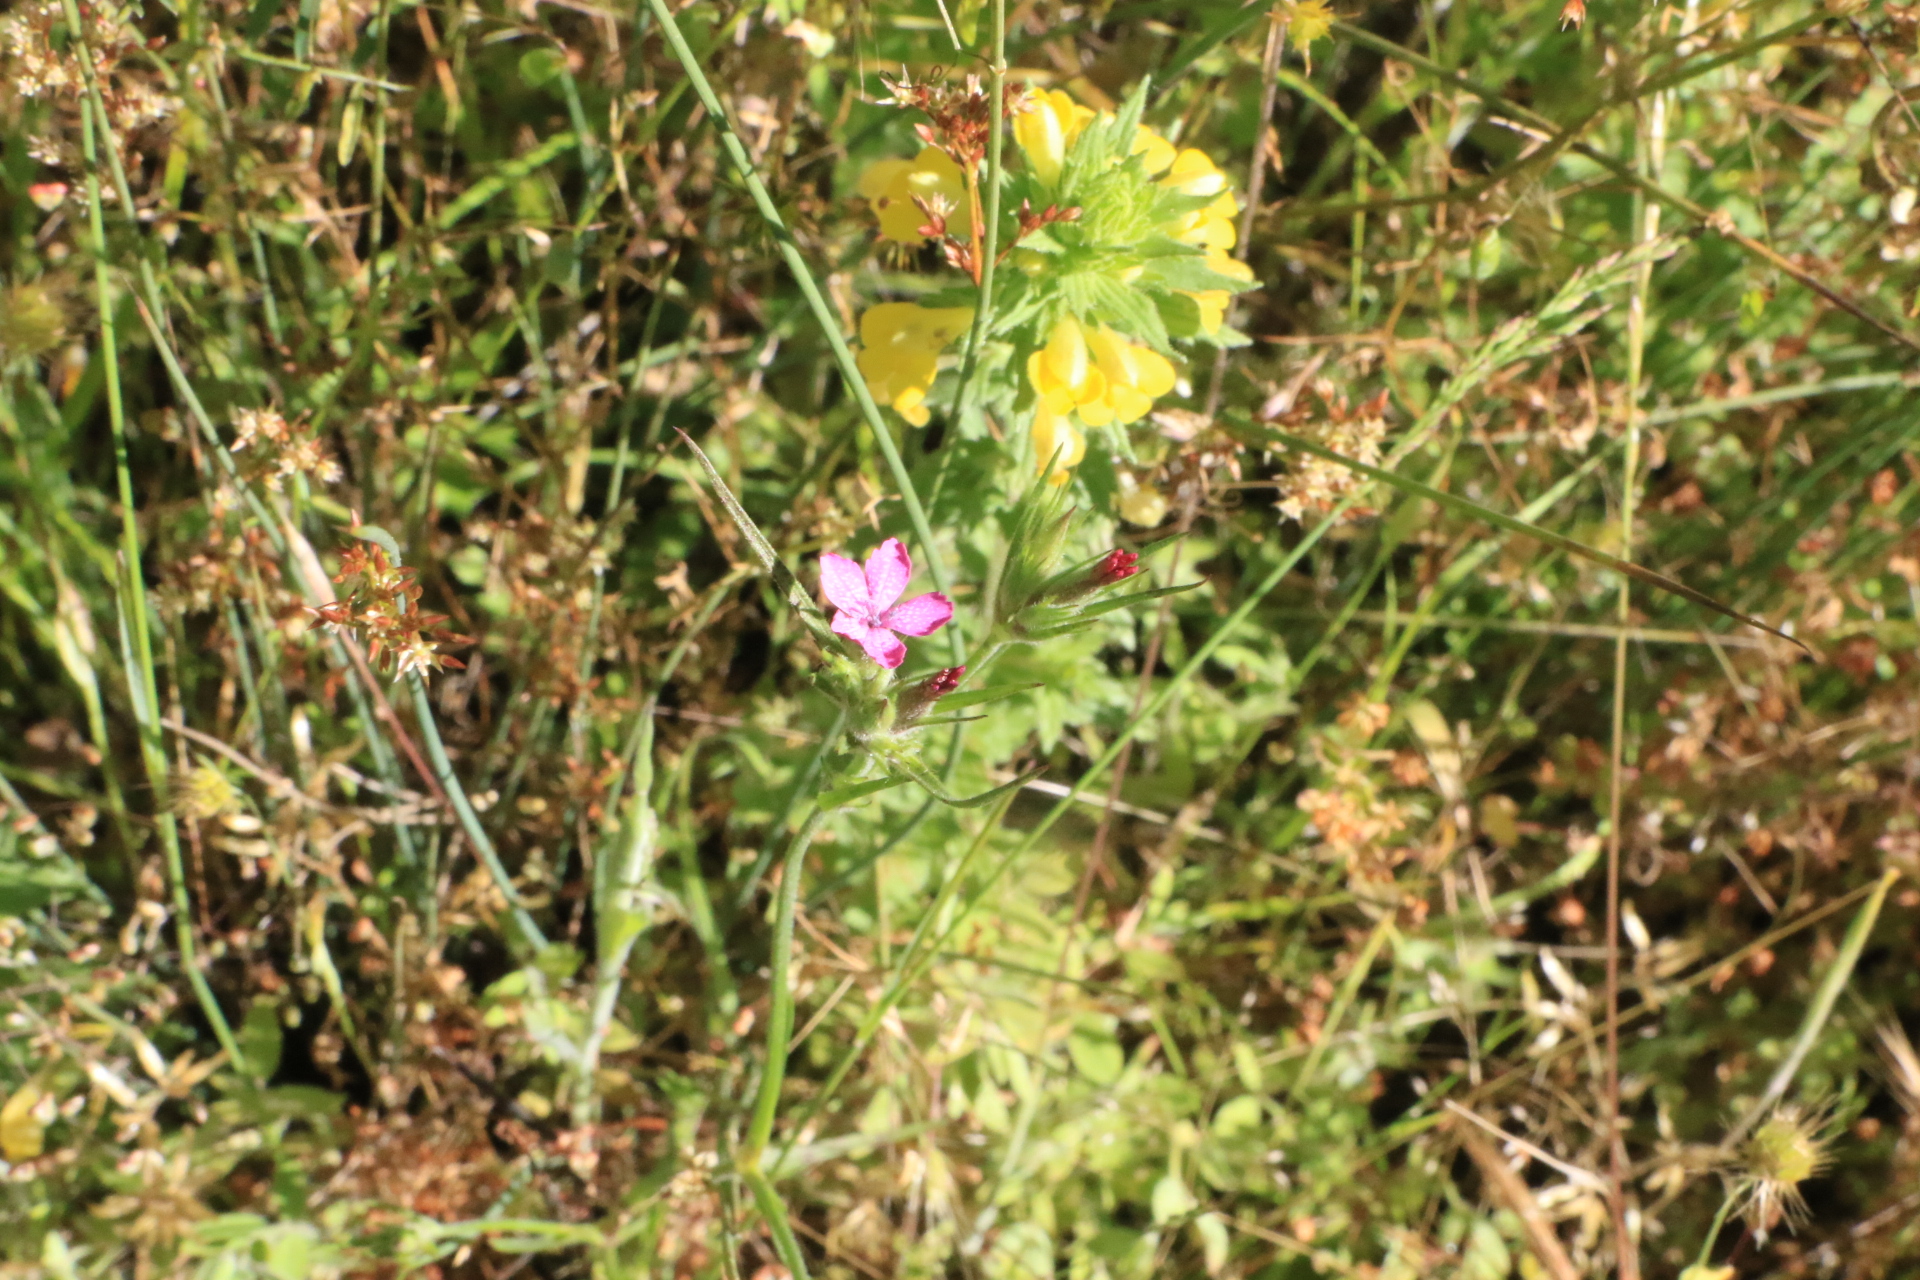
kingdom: Plantae
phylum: Tracheophyta
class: Magnoliopsida
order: Caryophyllales
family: Caryophyllaceae
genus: Dianthus
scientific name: Dianthus armeria
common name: Deptford pink
